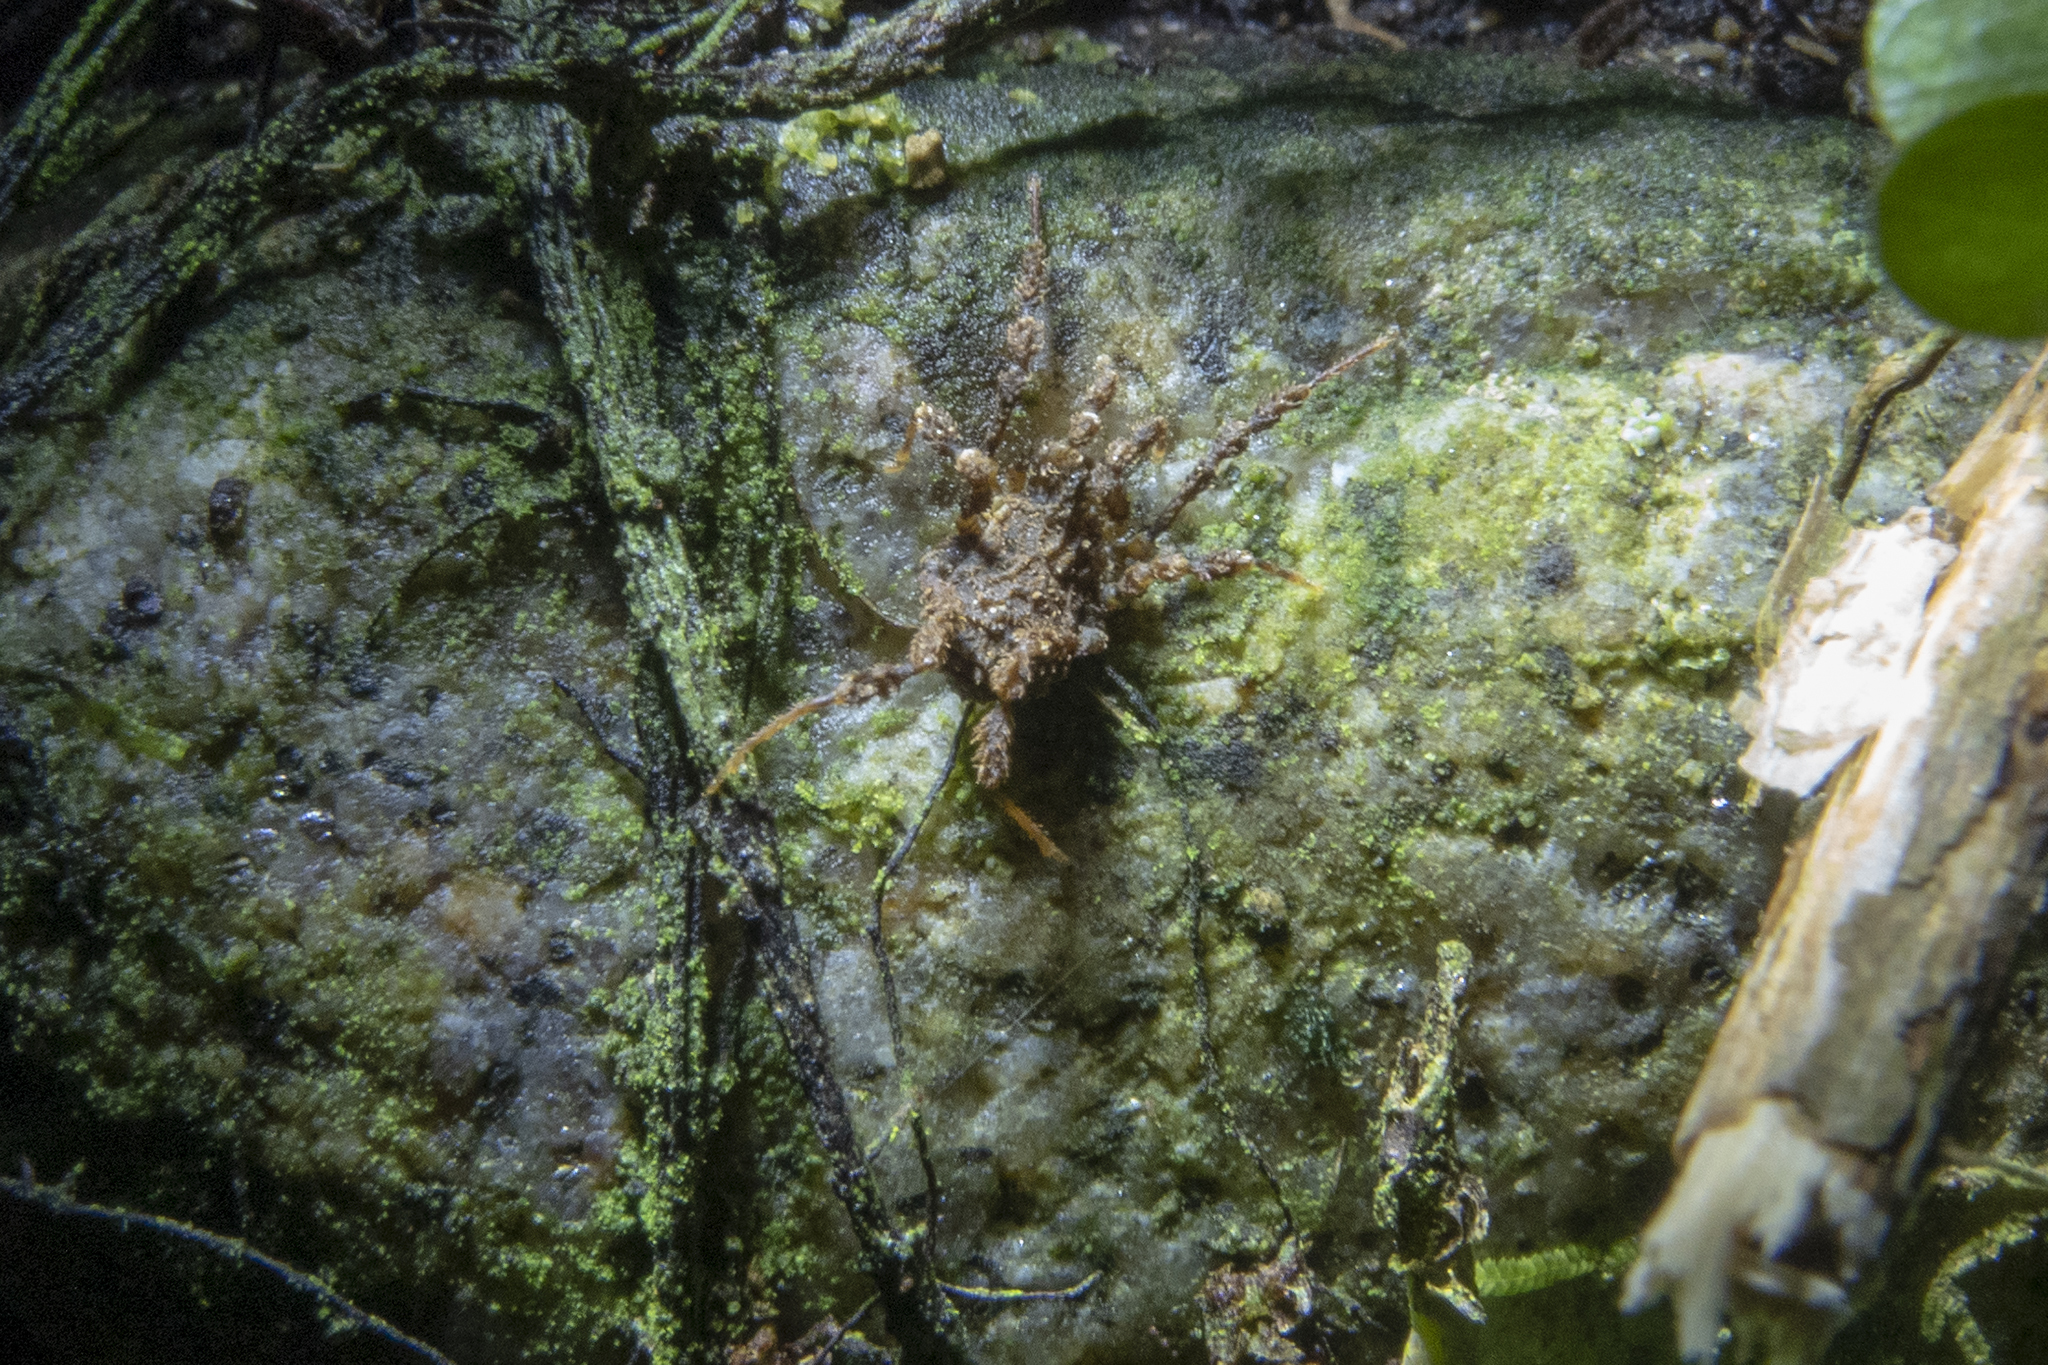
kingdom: Animalia
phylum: Arthropoda
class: Arachnida
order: Opiliones
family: Triaenonychidae
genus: Pristobunus
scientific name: Pristobunus acuminatus
